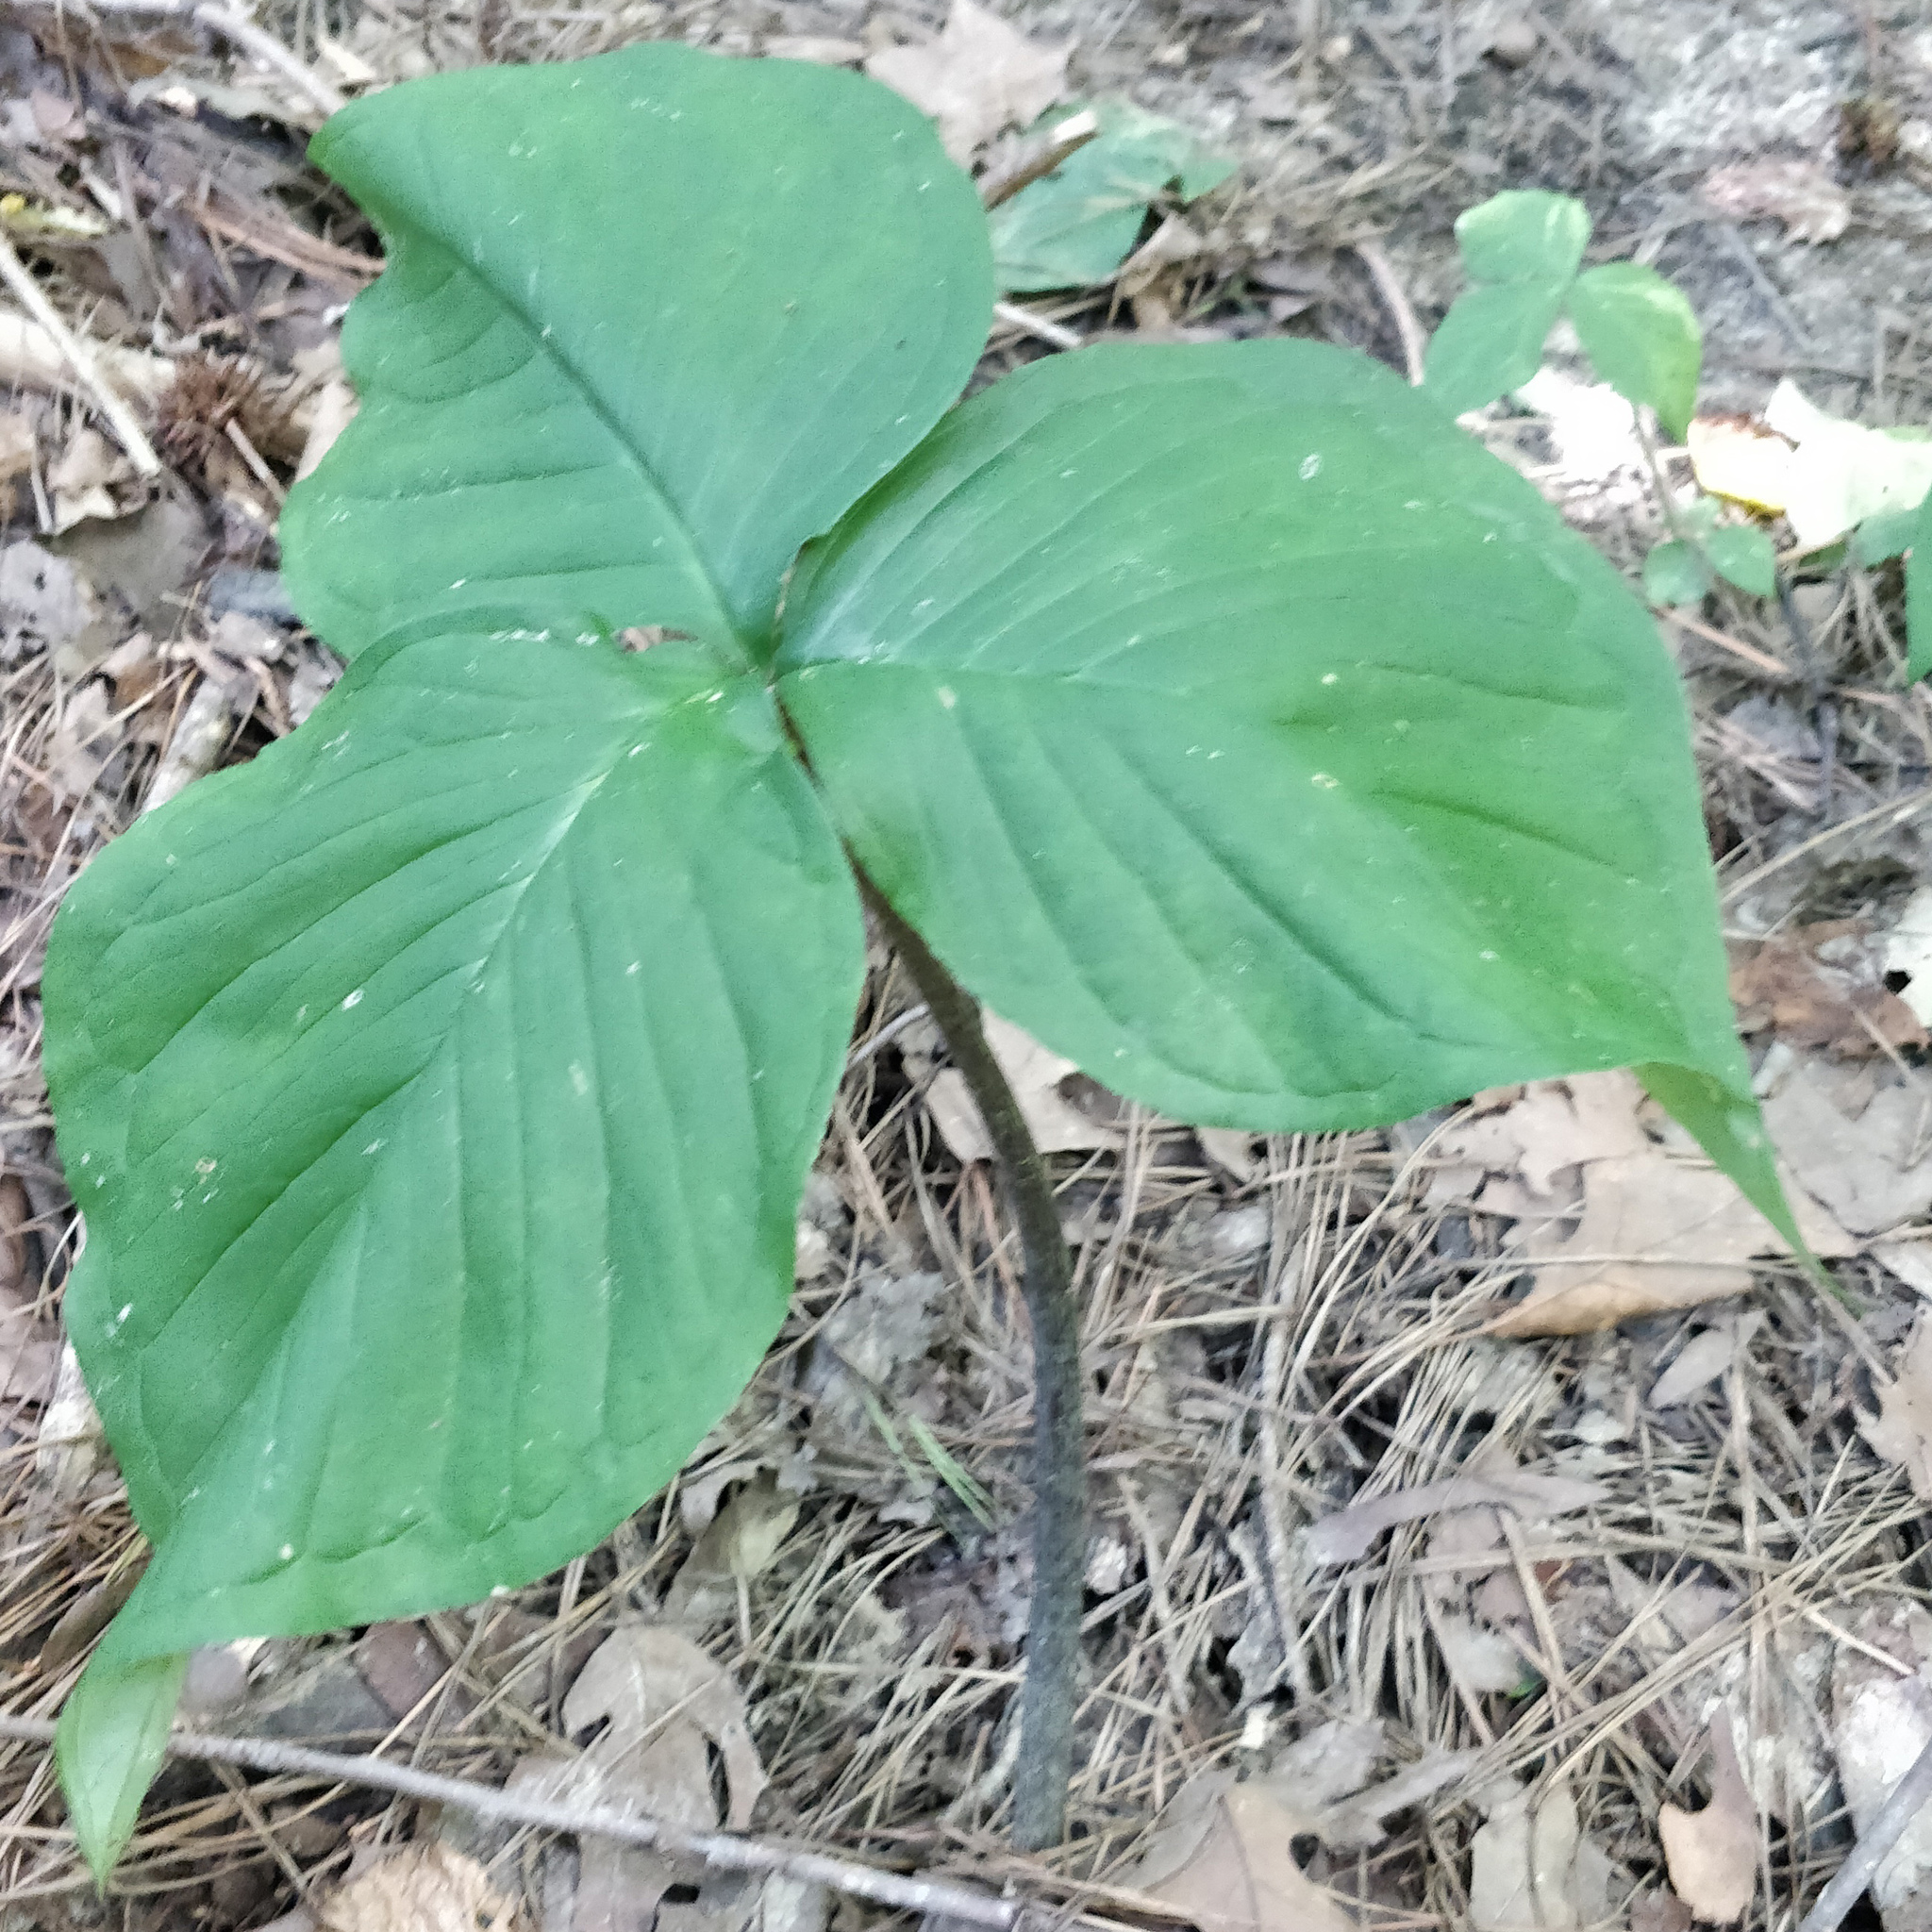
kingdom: Plantae
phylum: Tracheophyta
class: Liliopsida
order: Alismatales
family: Araceae
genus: Arisaema
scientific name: Arisaema triphyllum
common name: Jack-in-the-pulpit
